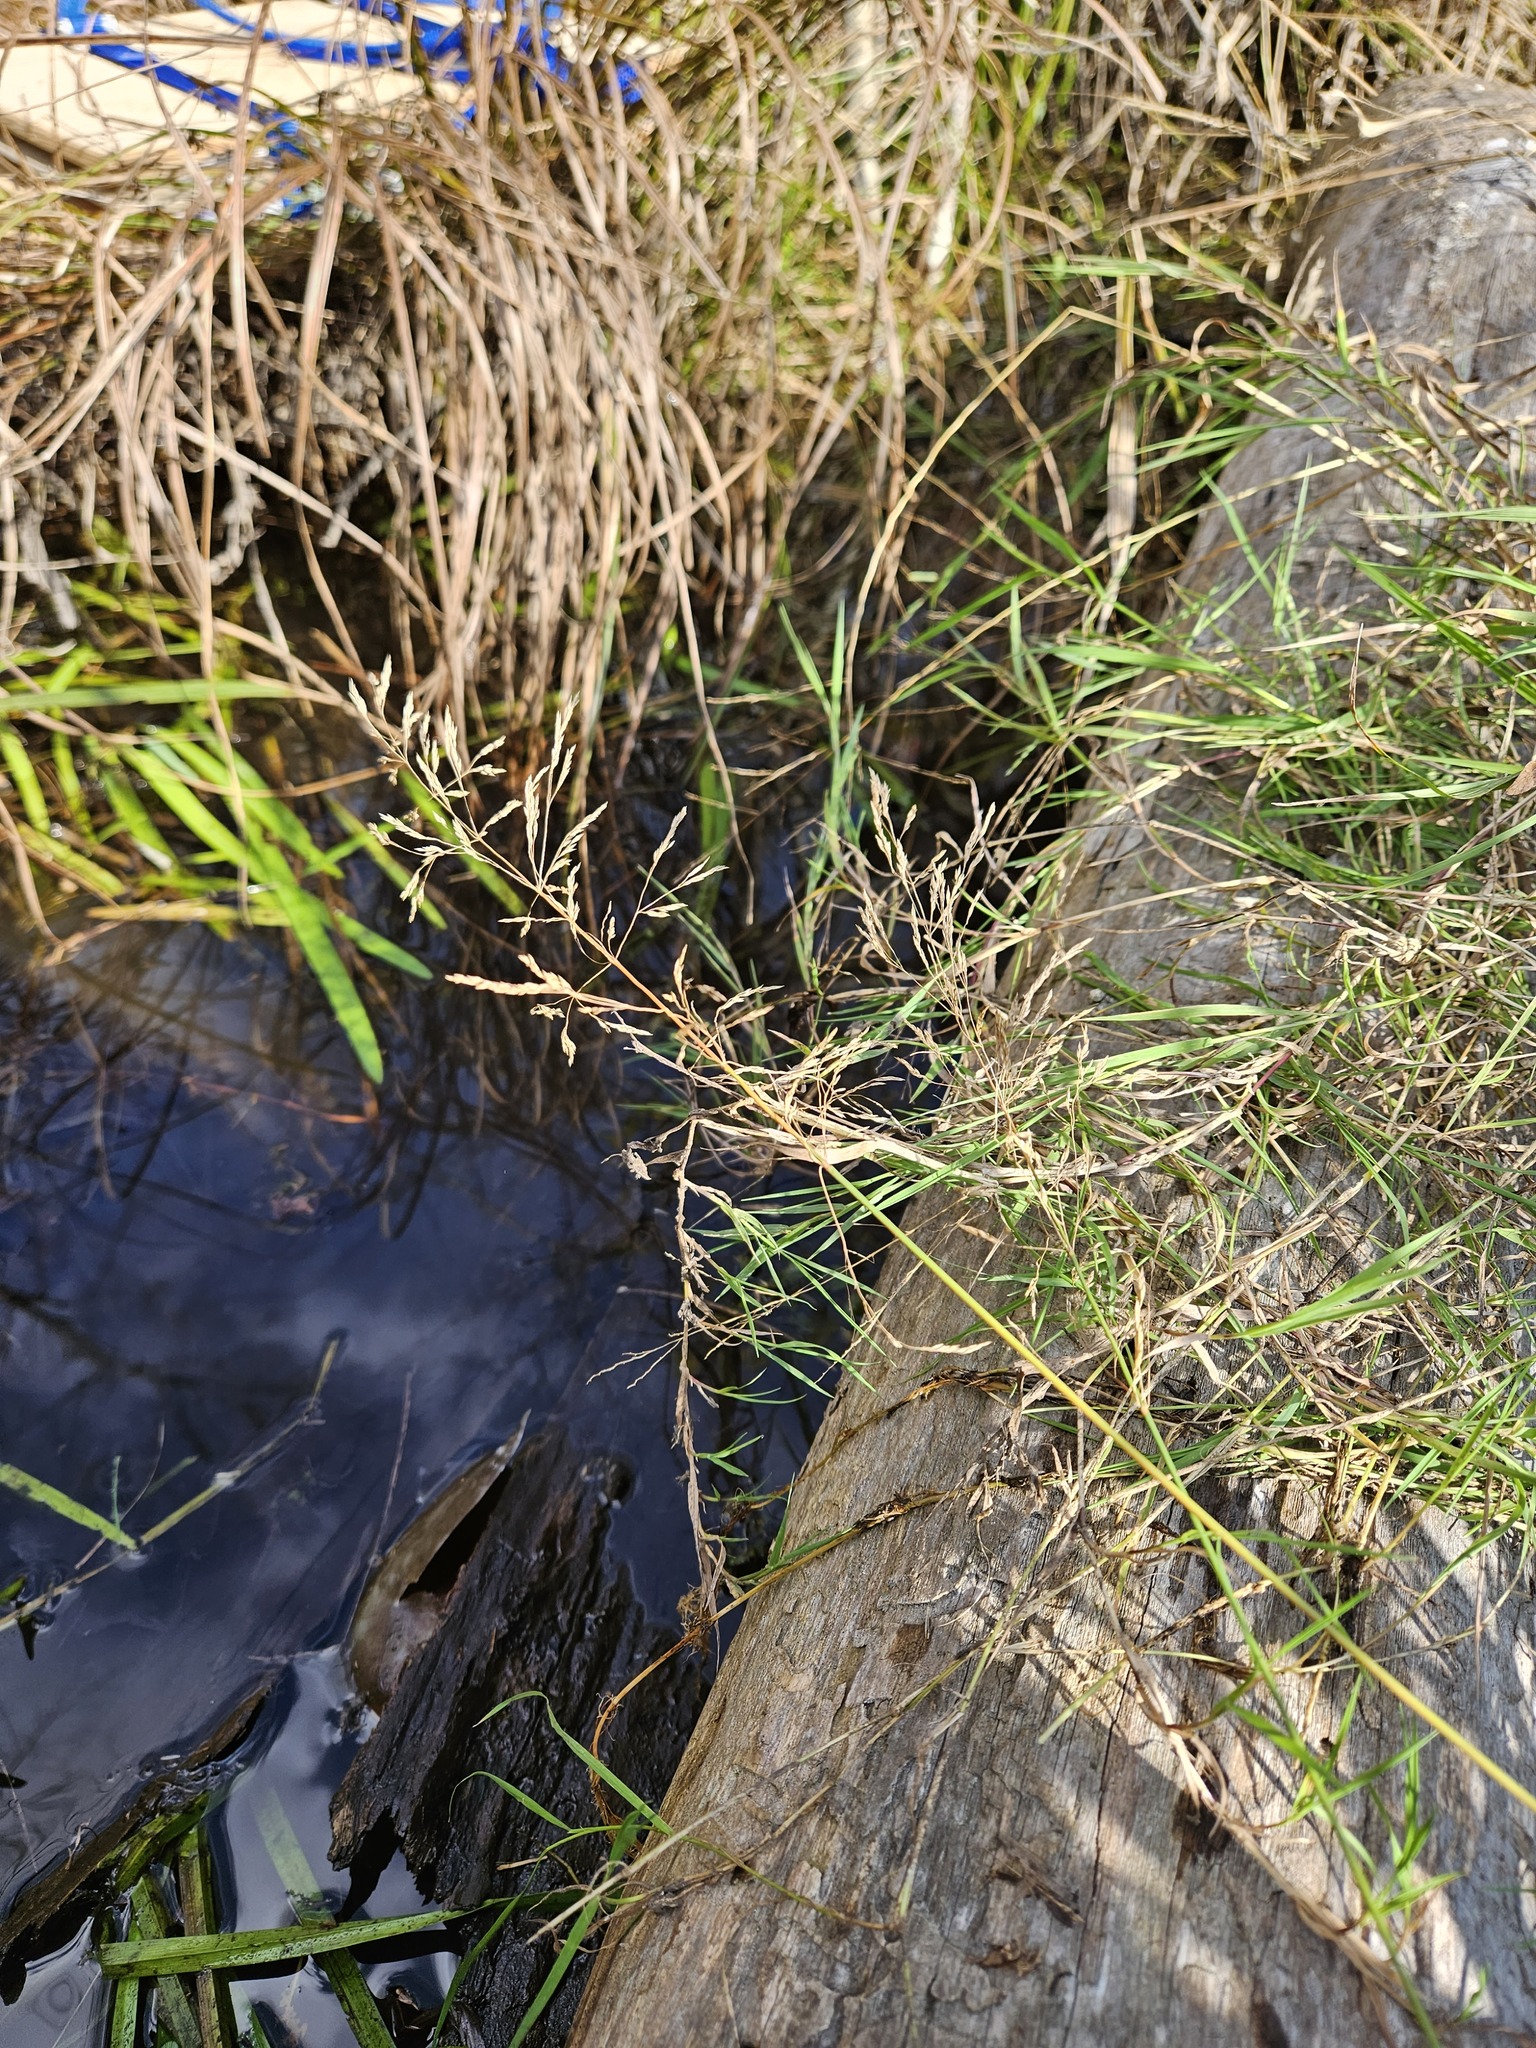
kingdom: Plantae
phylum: Tracheophyta
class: Liliopsida
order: Poales
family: Poaceae
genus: Agrostis
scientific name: Agrostis gigantea
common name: Black bent
